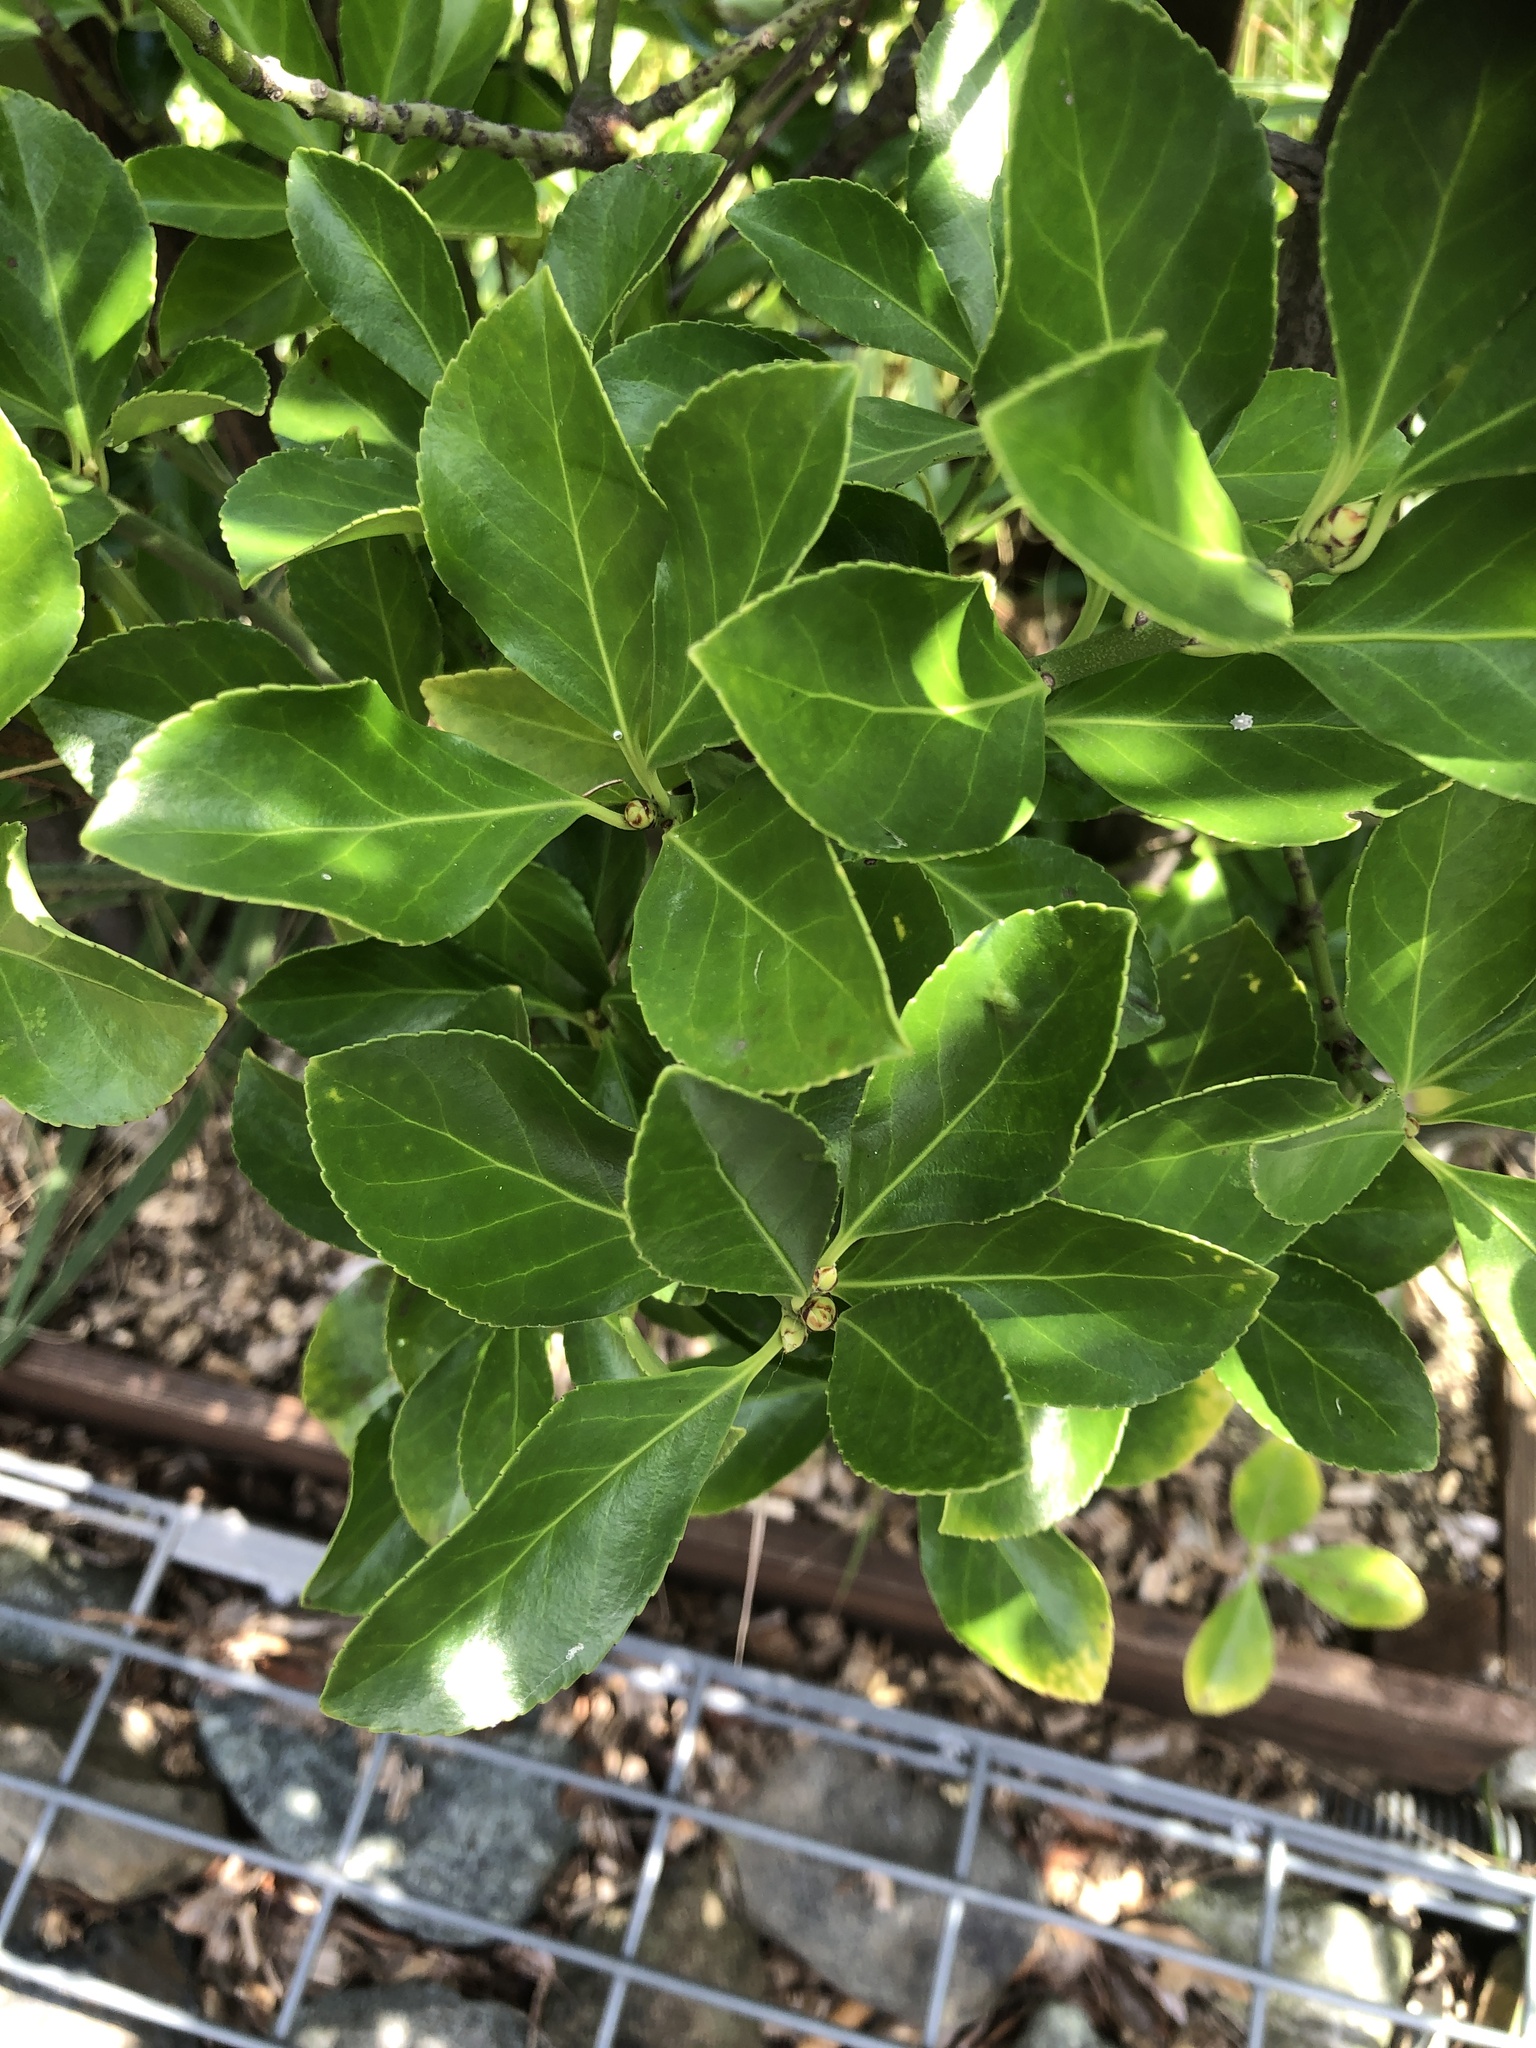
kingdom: Plantae
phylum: Tracheophyta
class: Magnoliopsida
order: Celastrales
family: Celastraceae
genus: Euonymus
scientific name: Euonymus japonicus
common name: Japanese spindletree
